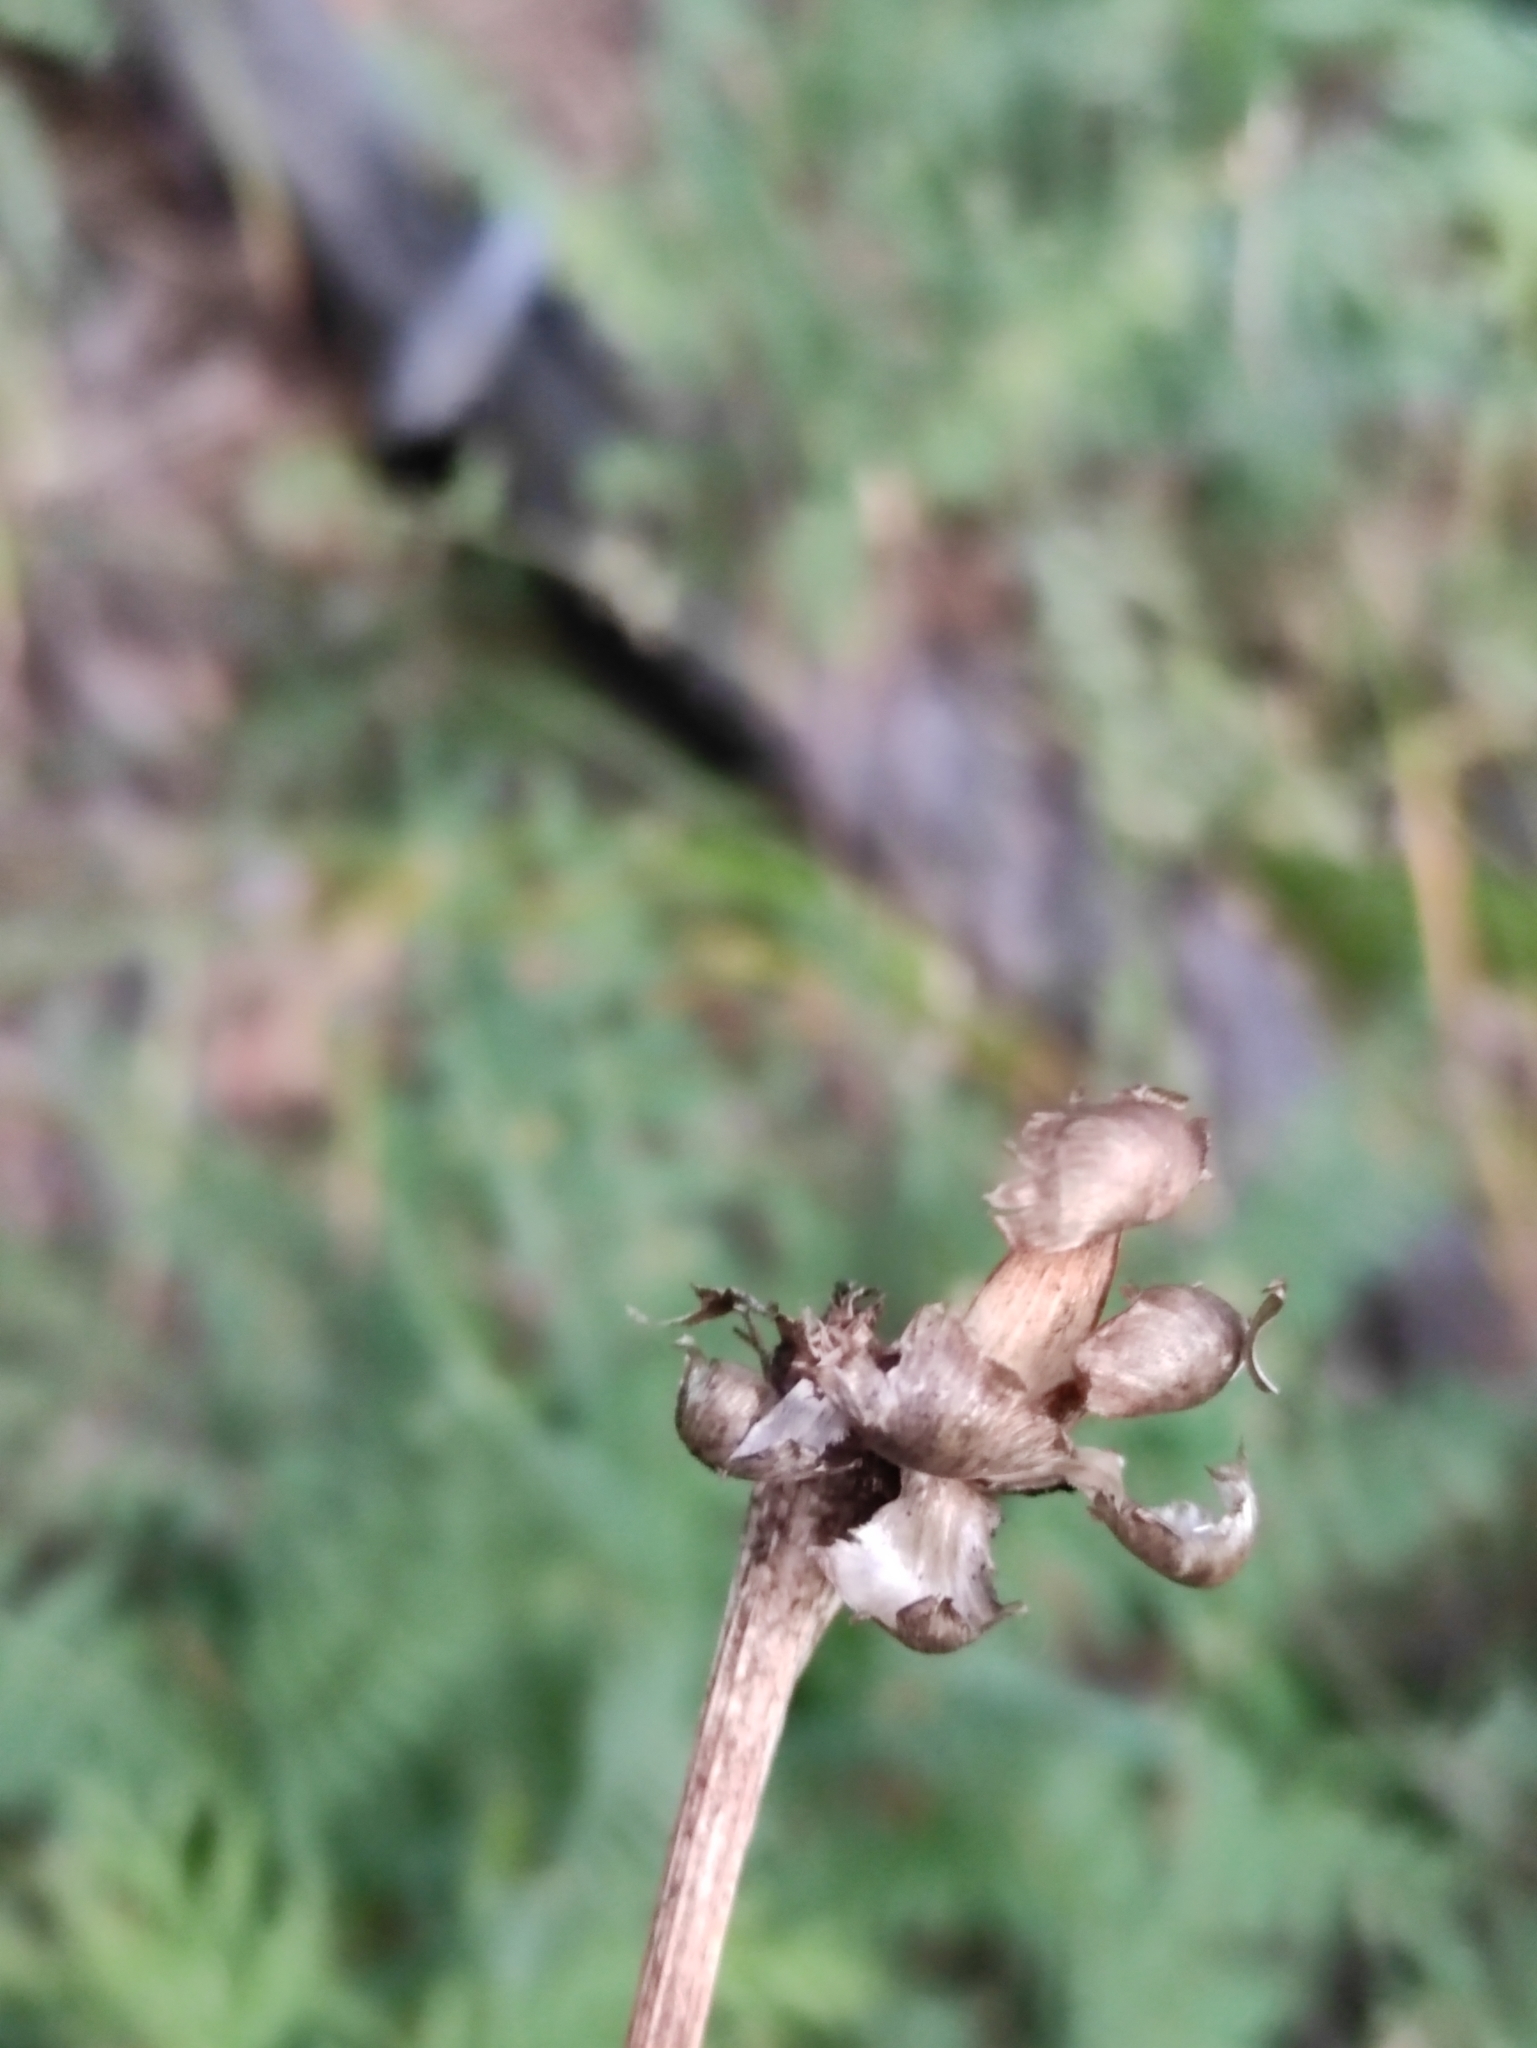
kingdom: Plantae
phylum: Tracheophyta
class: Magnoliopsida
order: Asterales
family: Asteraceae
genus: Leuzea
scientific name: Leuzea uniflora
